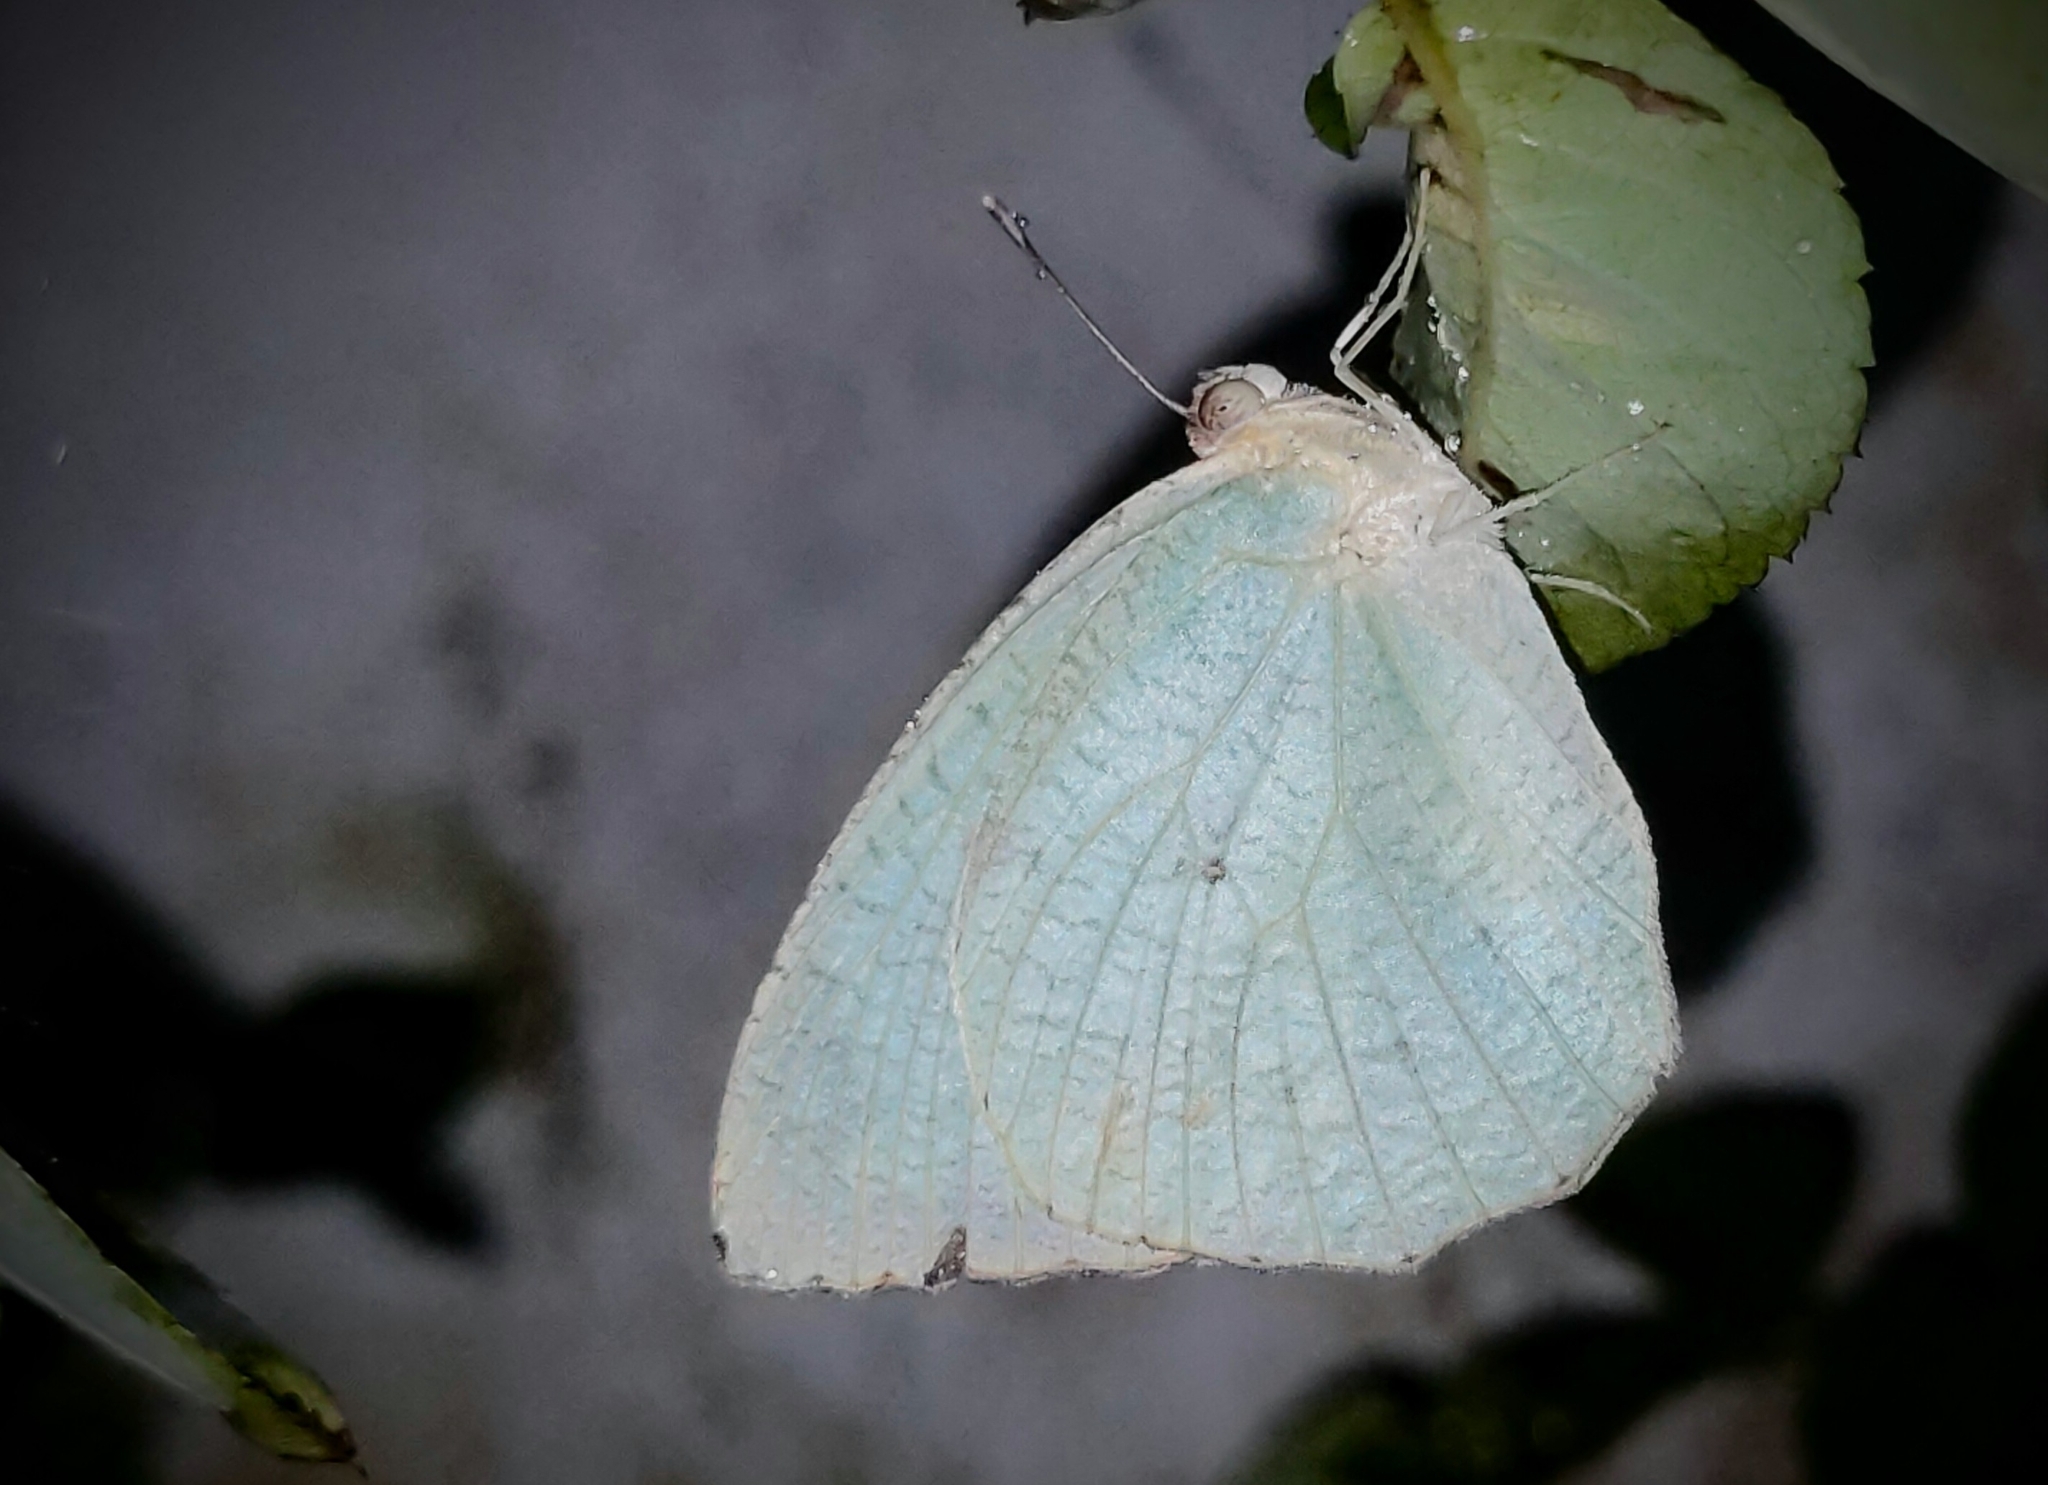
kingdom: Animalia
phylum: Arthropoda
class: Insecta
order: Lepidoptera
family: Pieridae
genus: Catopsilia
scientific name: Catopsilia pyranthe
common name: Mottled emigrant
